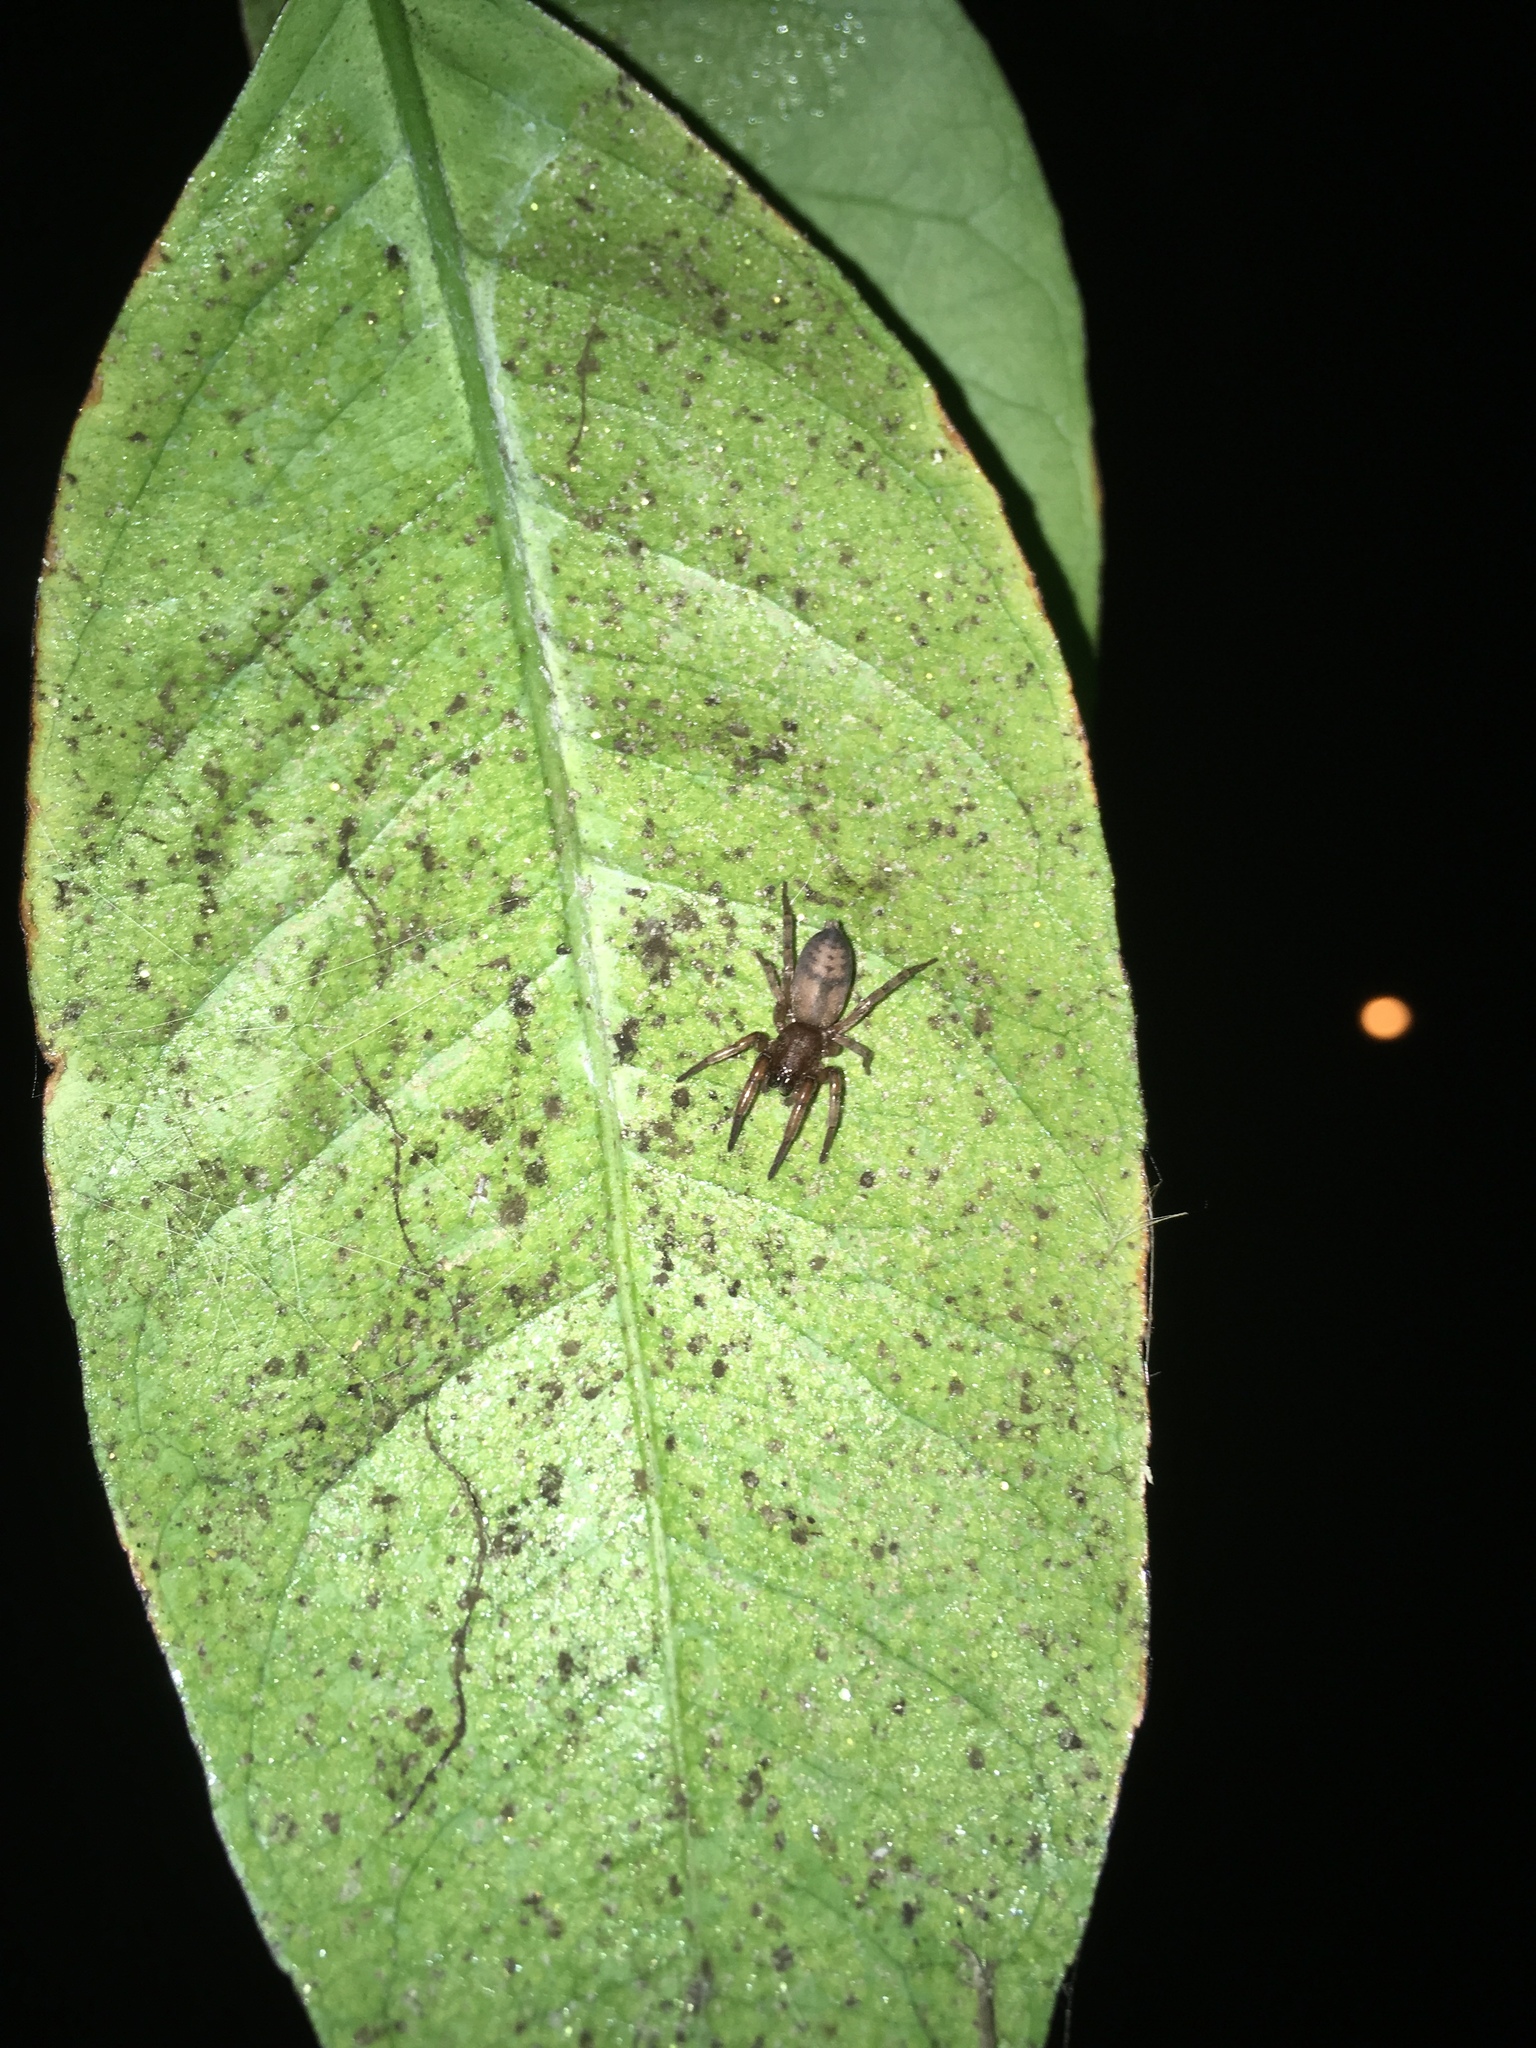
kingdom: Animalia
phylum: Arthropoda
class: Arachnida
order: Araneae
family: Gnaphosidae
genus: Intruda
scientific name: Intruda signata
